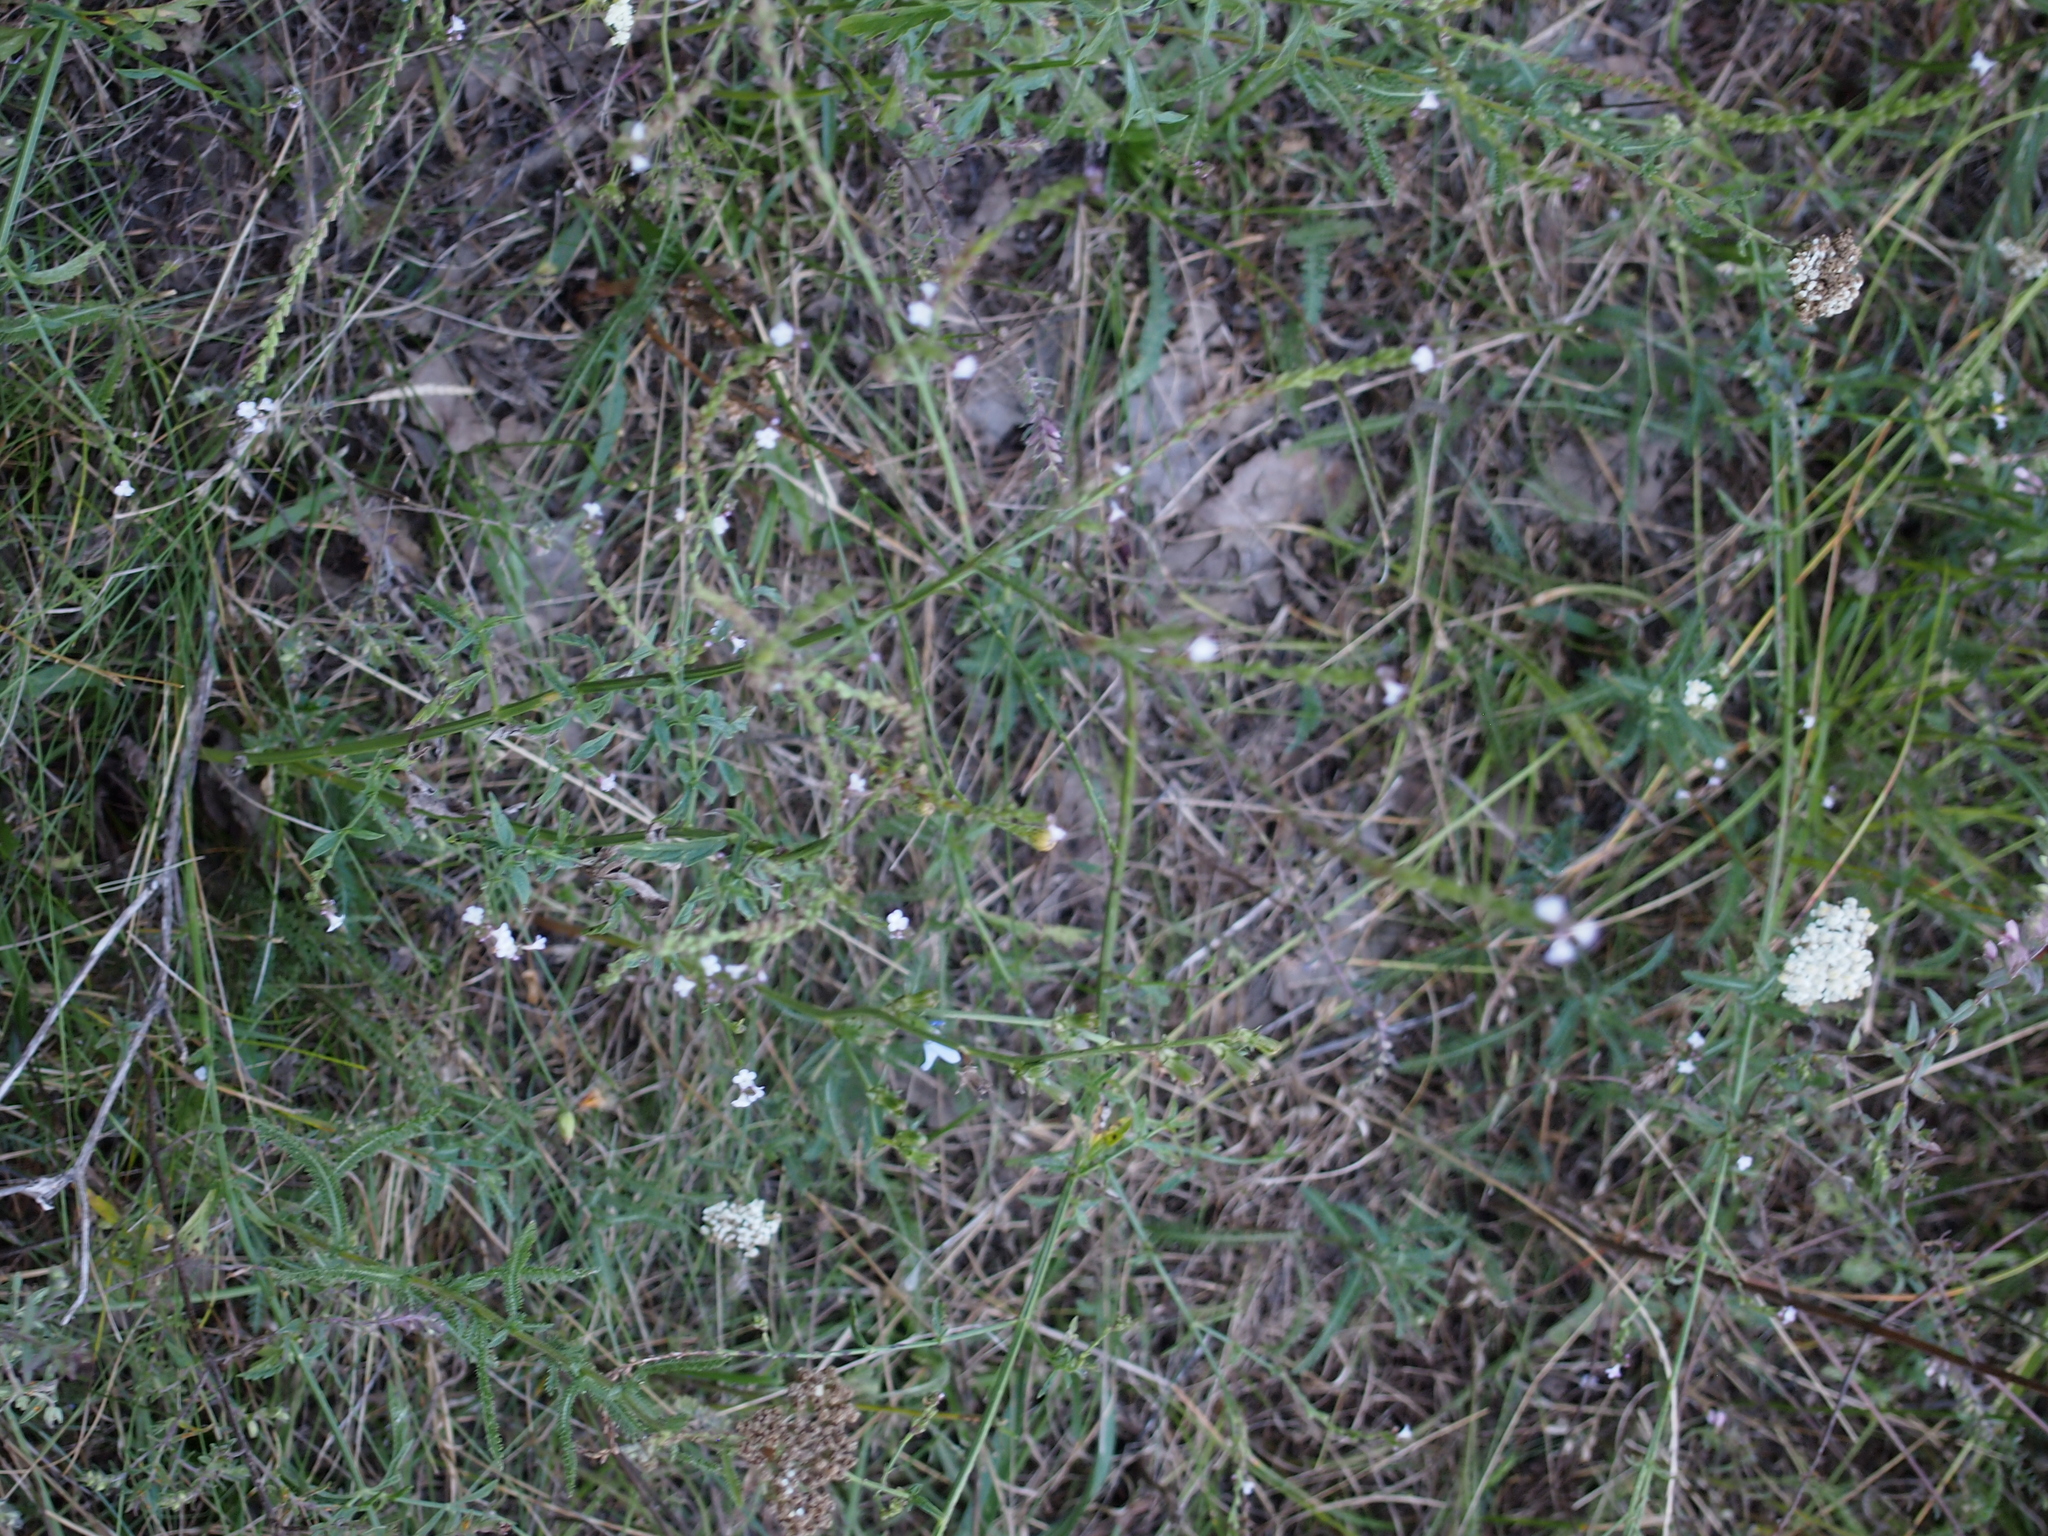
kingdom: Plantae
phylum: Tracheophyta
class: Magnoliopsida
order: Lamiales
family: Verbenaceae
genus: Verbena
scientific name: Verbena officinalis
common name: Vervain
